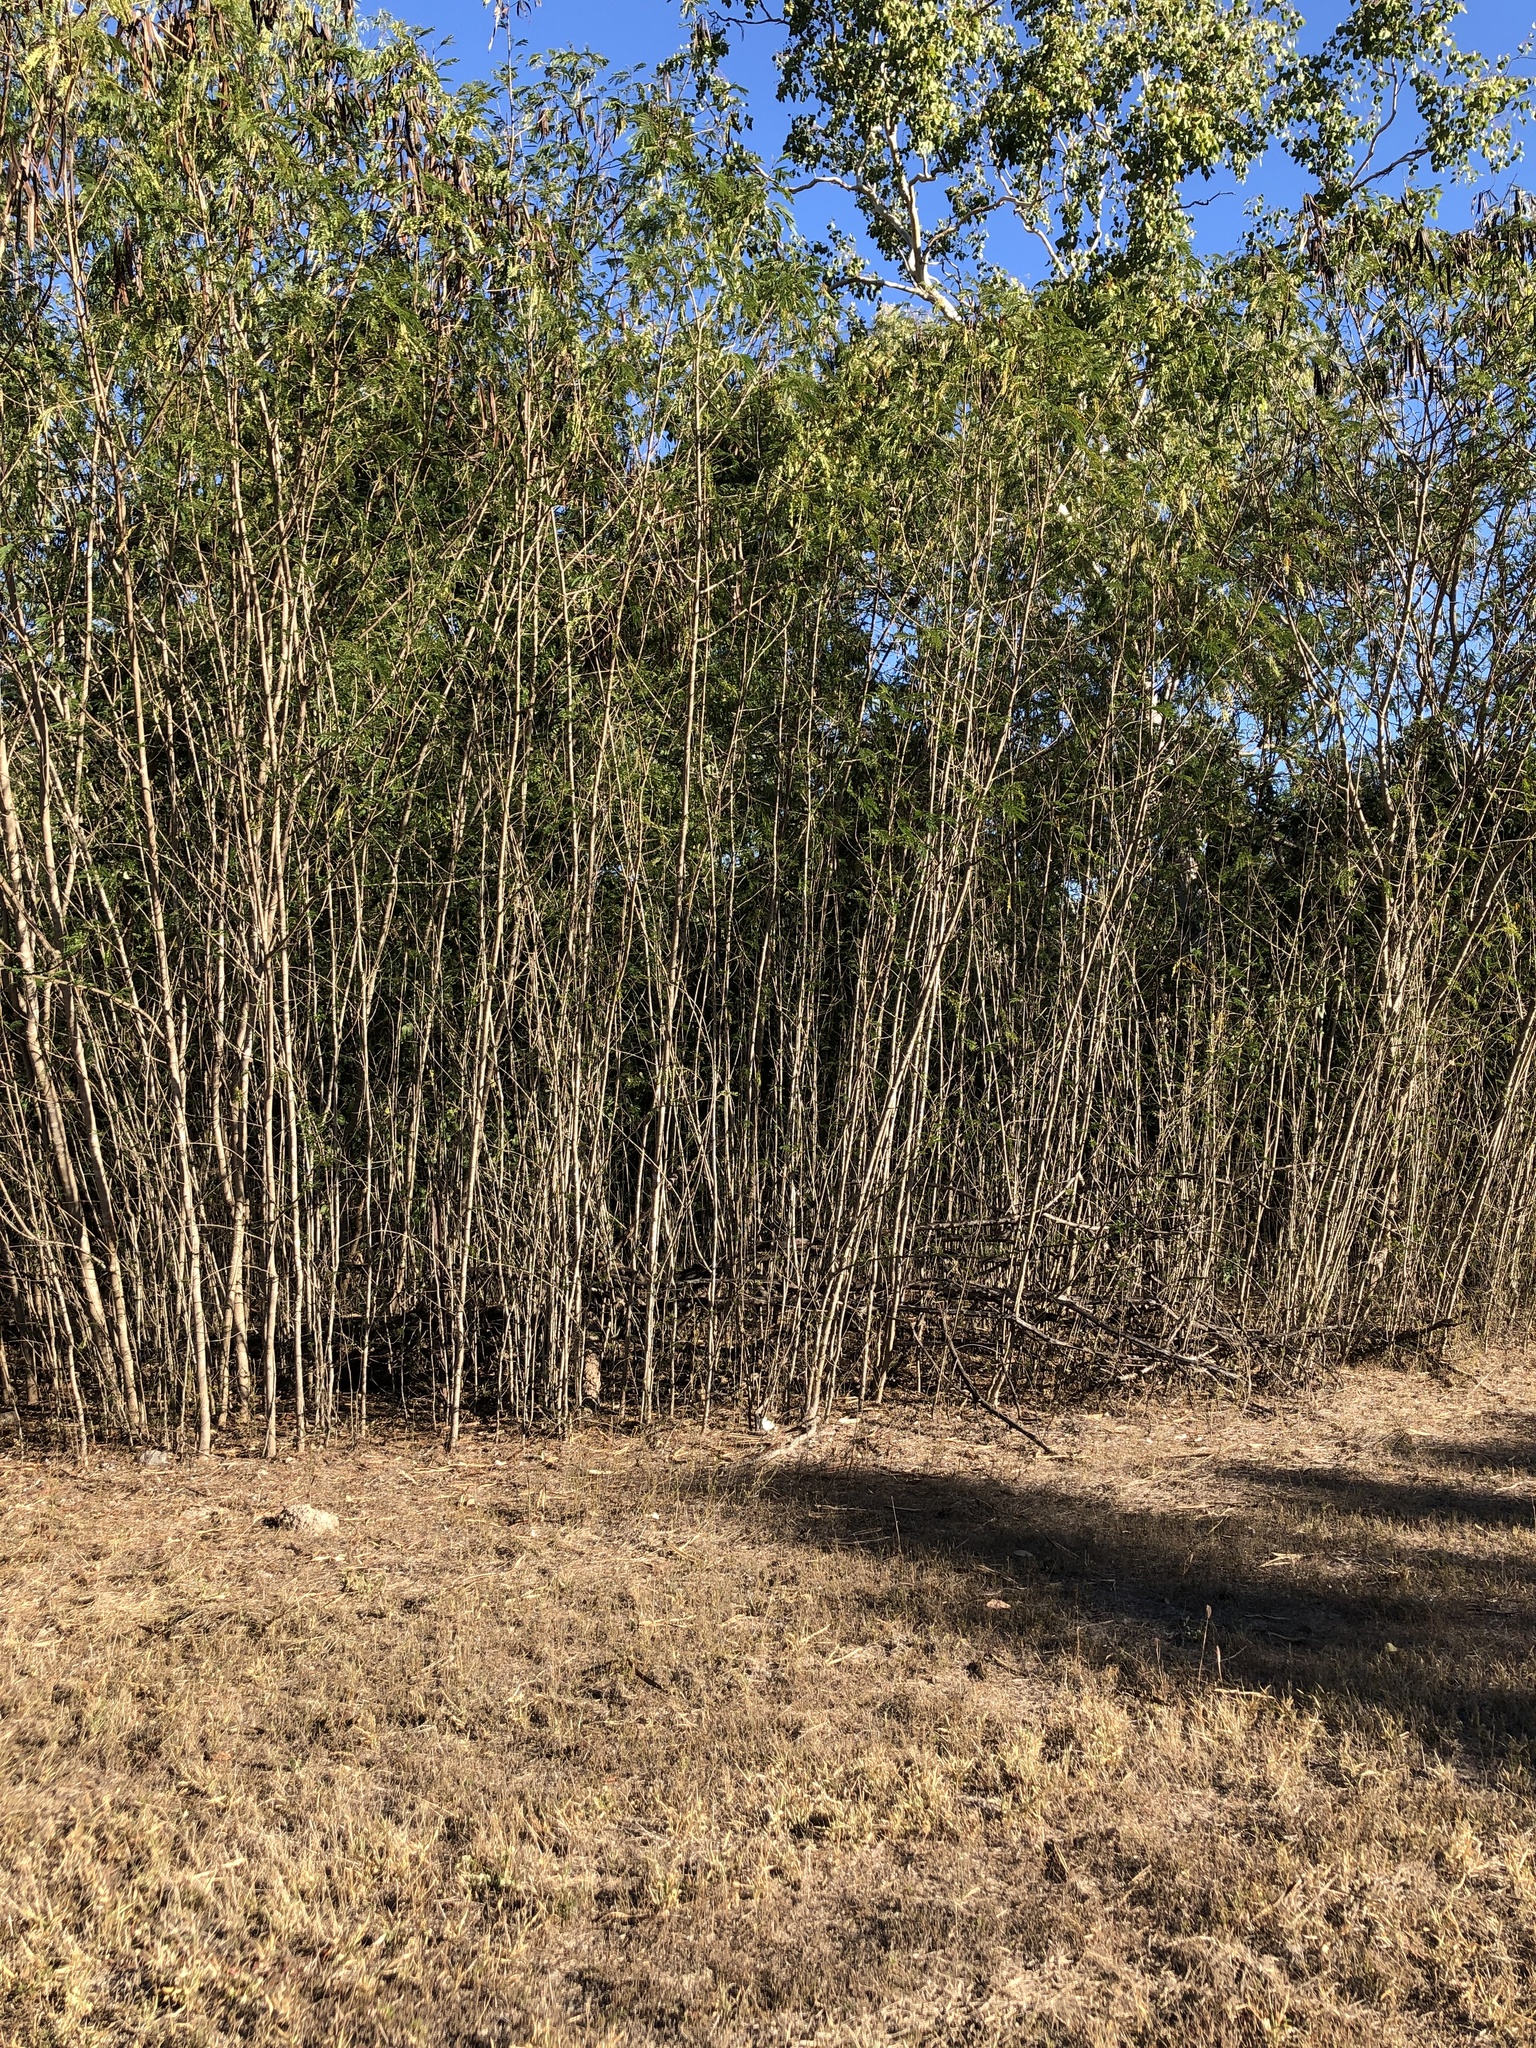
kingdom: Plantae
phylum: Tracheophyta
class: Magnoliopsida
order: Fabales
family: Fabaceae
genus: Leucaena
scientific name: Leucaena leucocephala
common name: White leadtree
